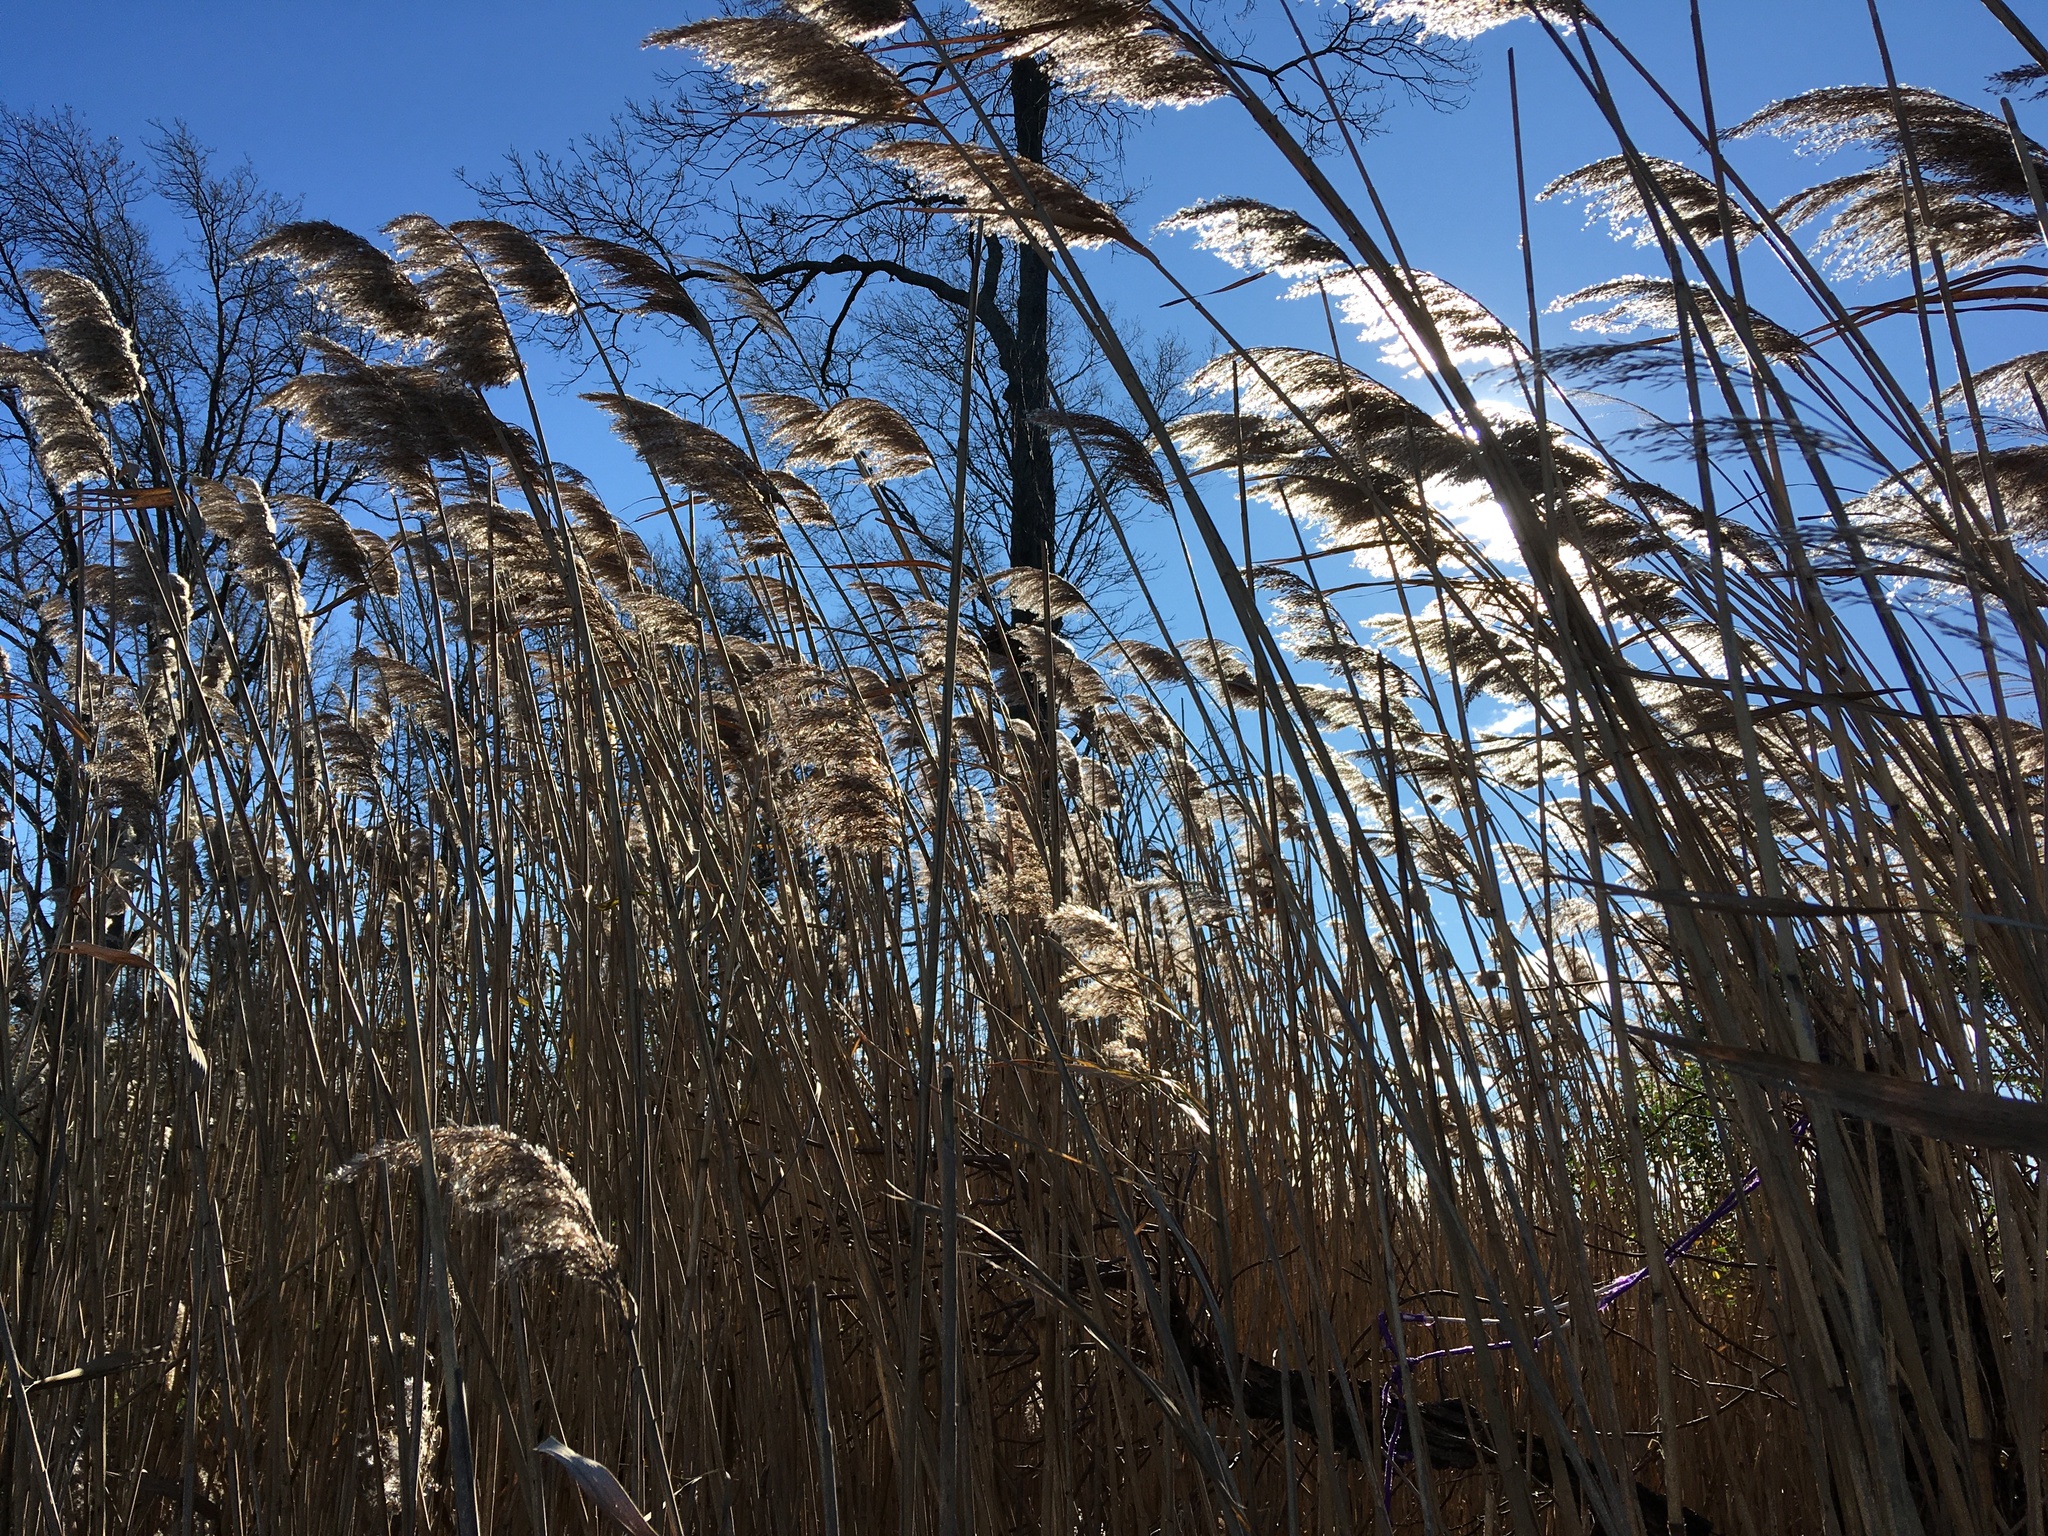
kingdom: Plantae
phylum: Tracheophyta
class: Liliopsida
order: Poales
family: Poaceae
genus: Phragmites
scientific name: Phragmites australis
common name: Common reed
